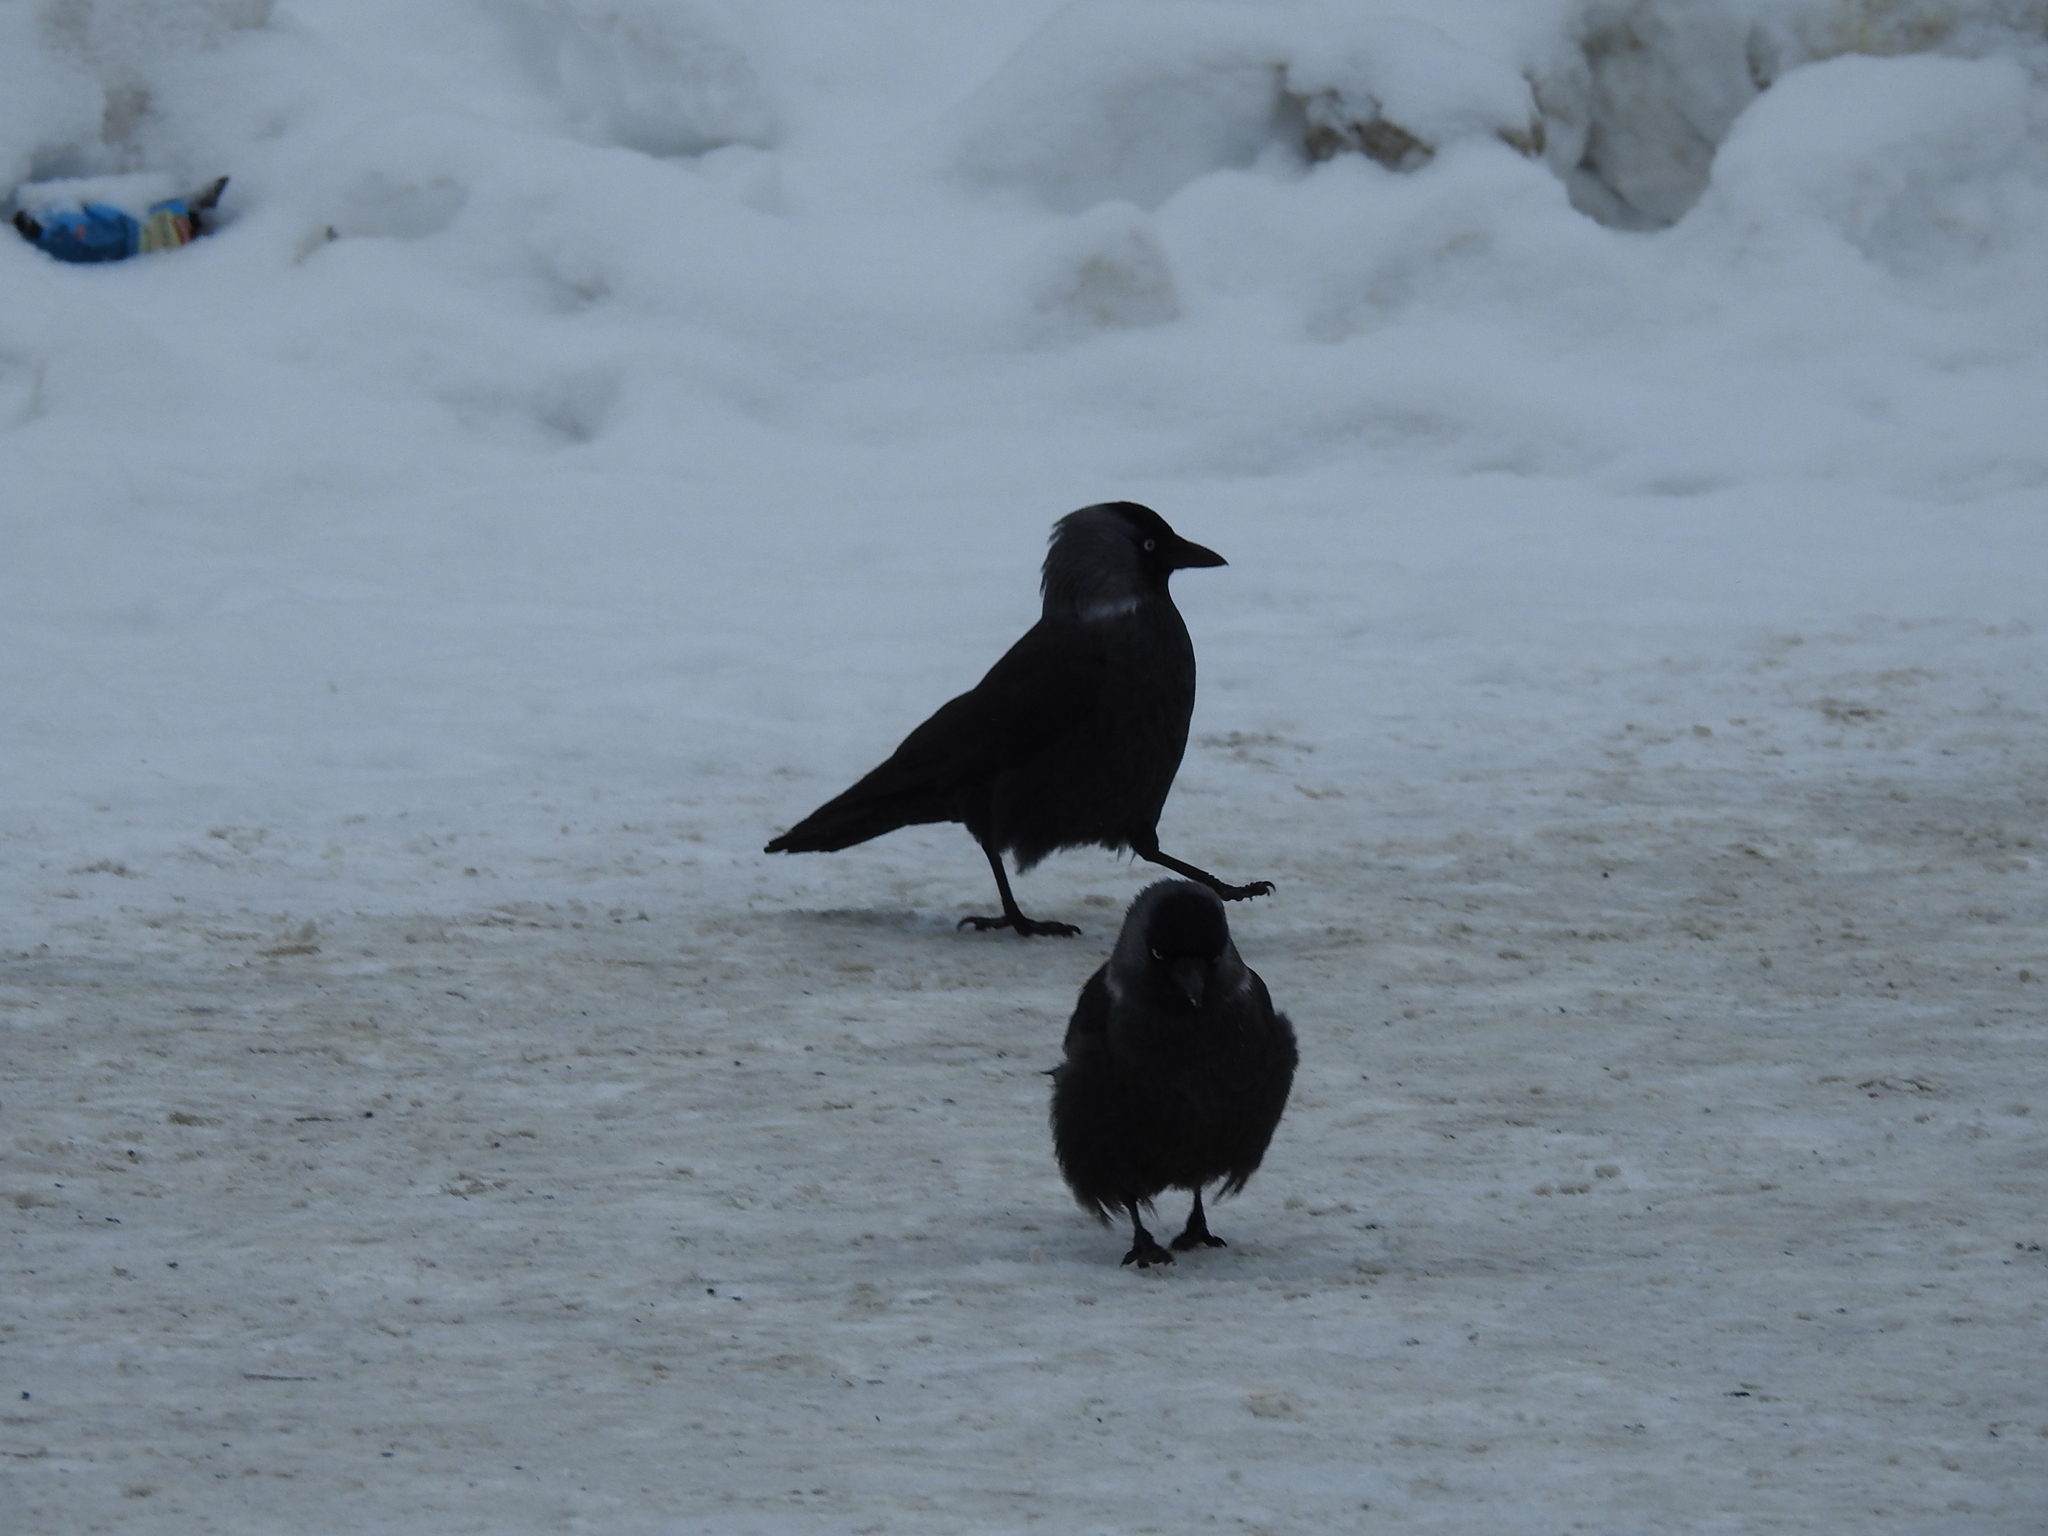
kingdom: Animalia
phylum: Chordata
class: Aves
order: Passeriformes
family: Corvidae
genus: Coloeus
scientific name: Coloeus monedula
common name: Western jackdaw
